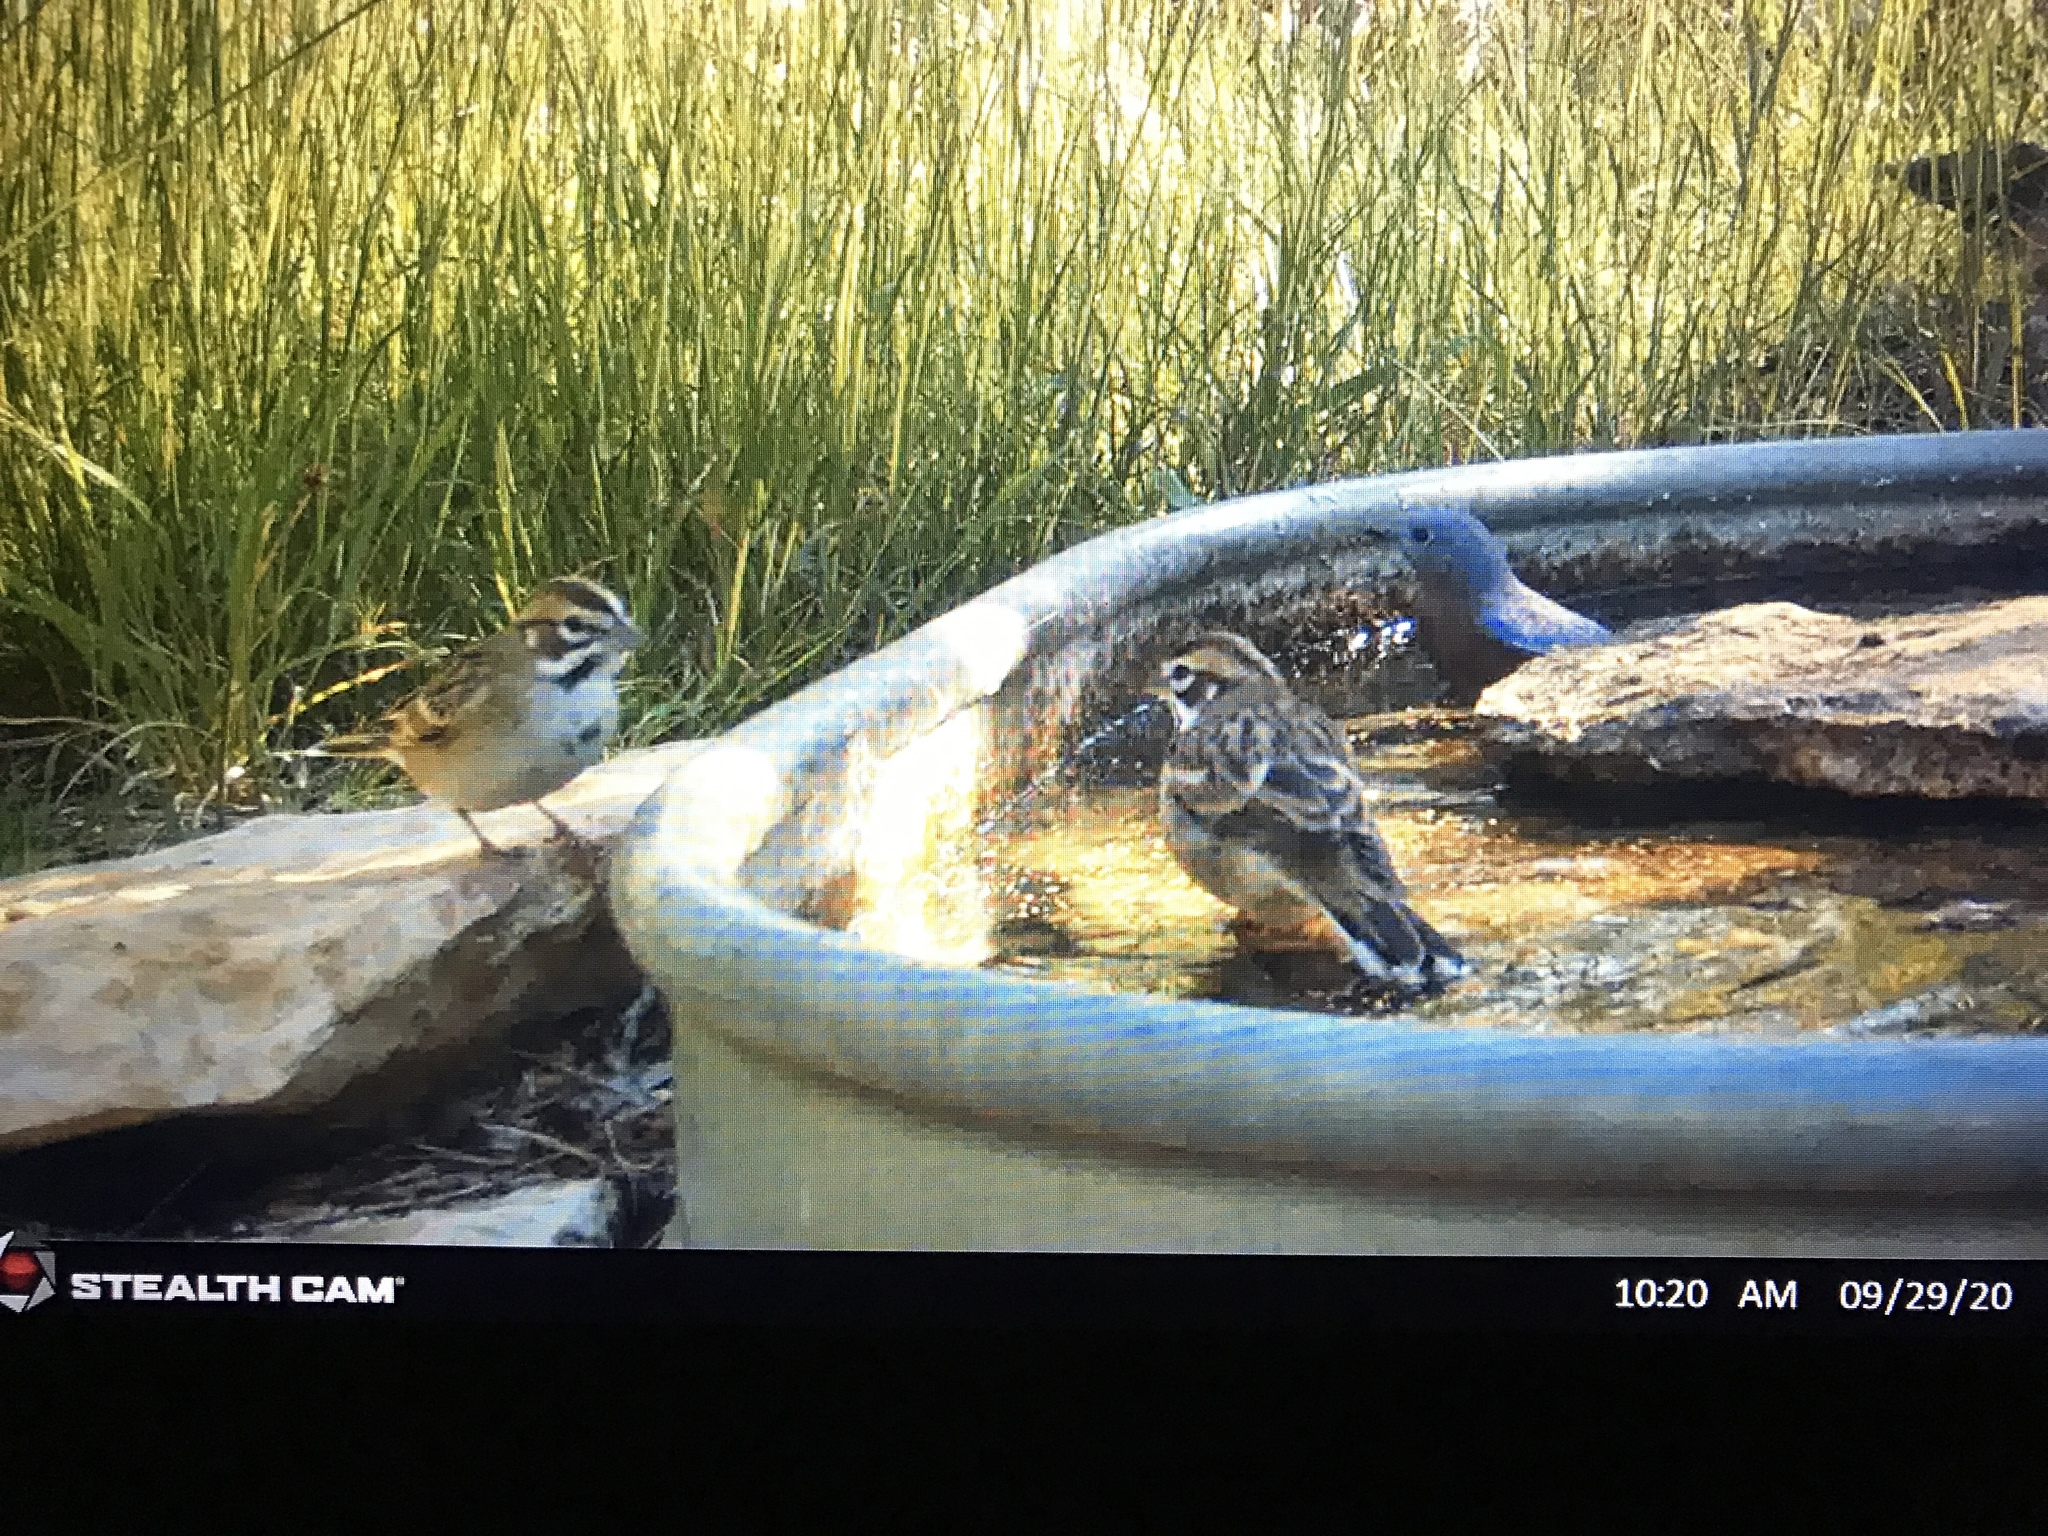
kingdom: Animalia
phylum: Chordata
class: Aves
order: Passeriformes
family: Passerellidae
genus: Chondestes
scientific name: Chondestes grammacus
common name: Lark sparrow
